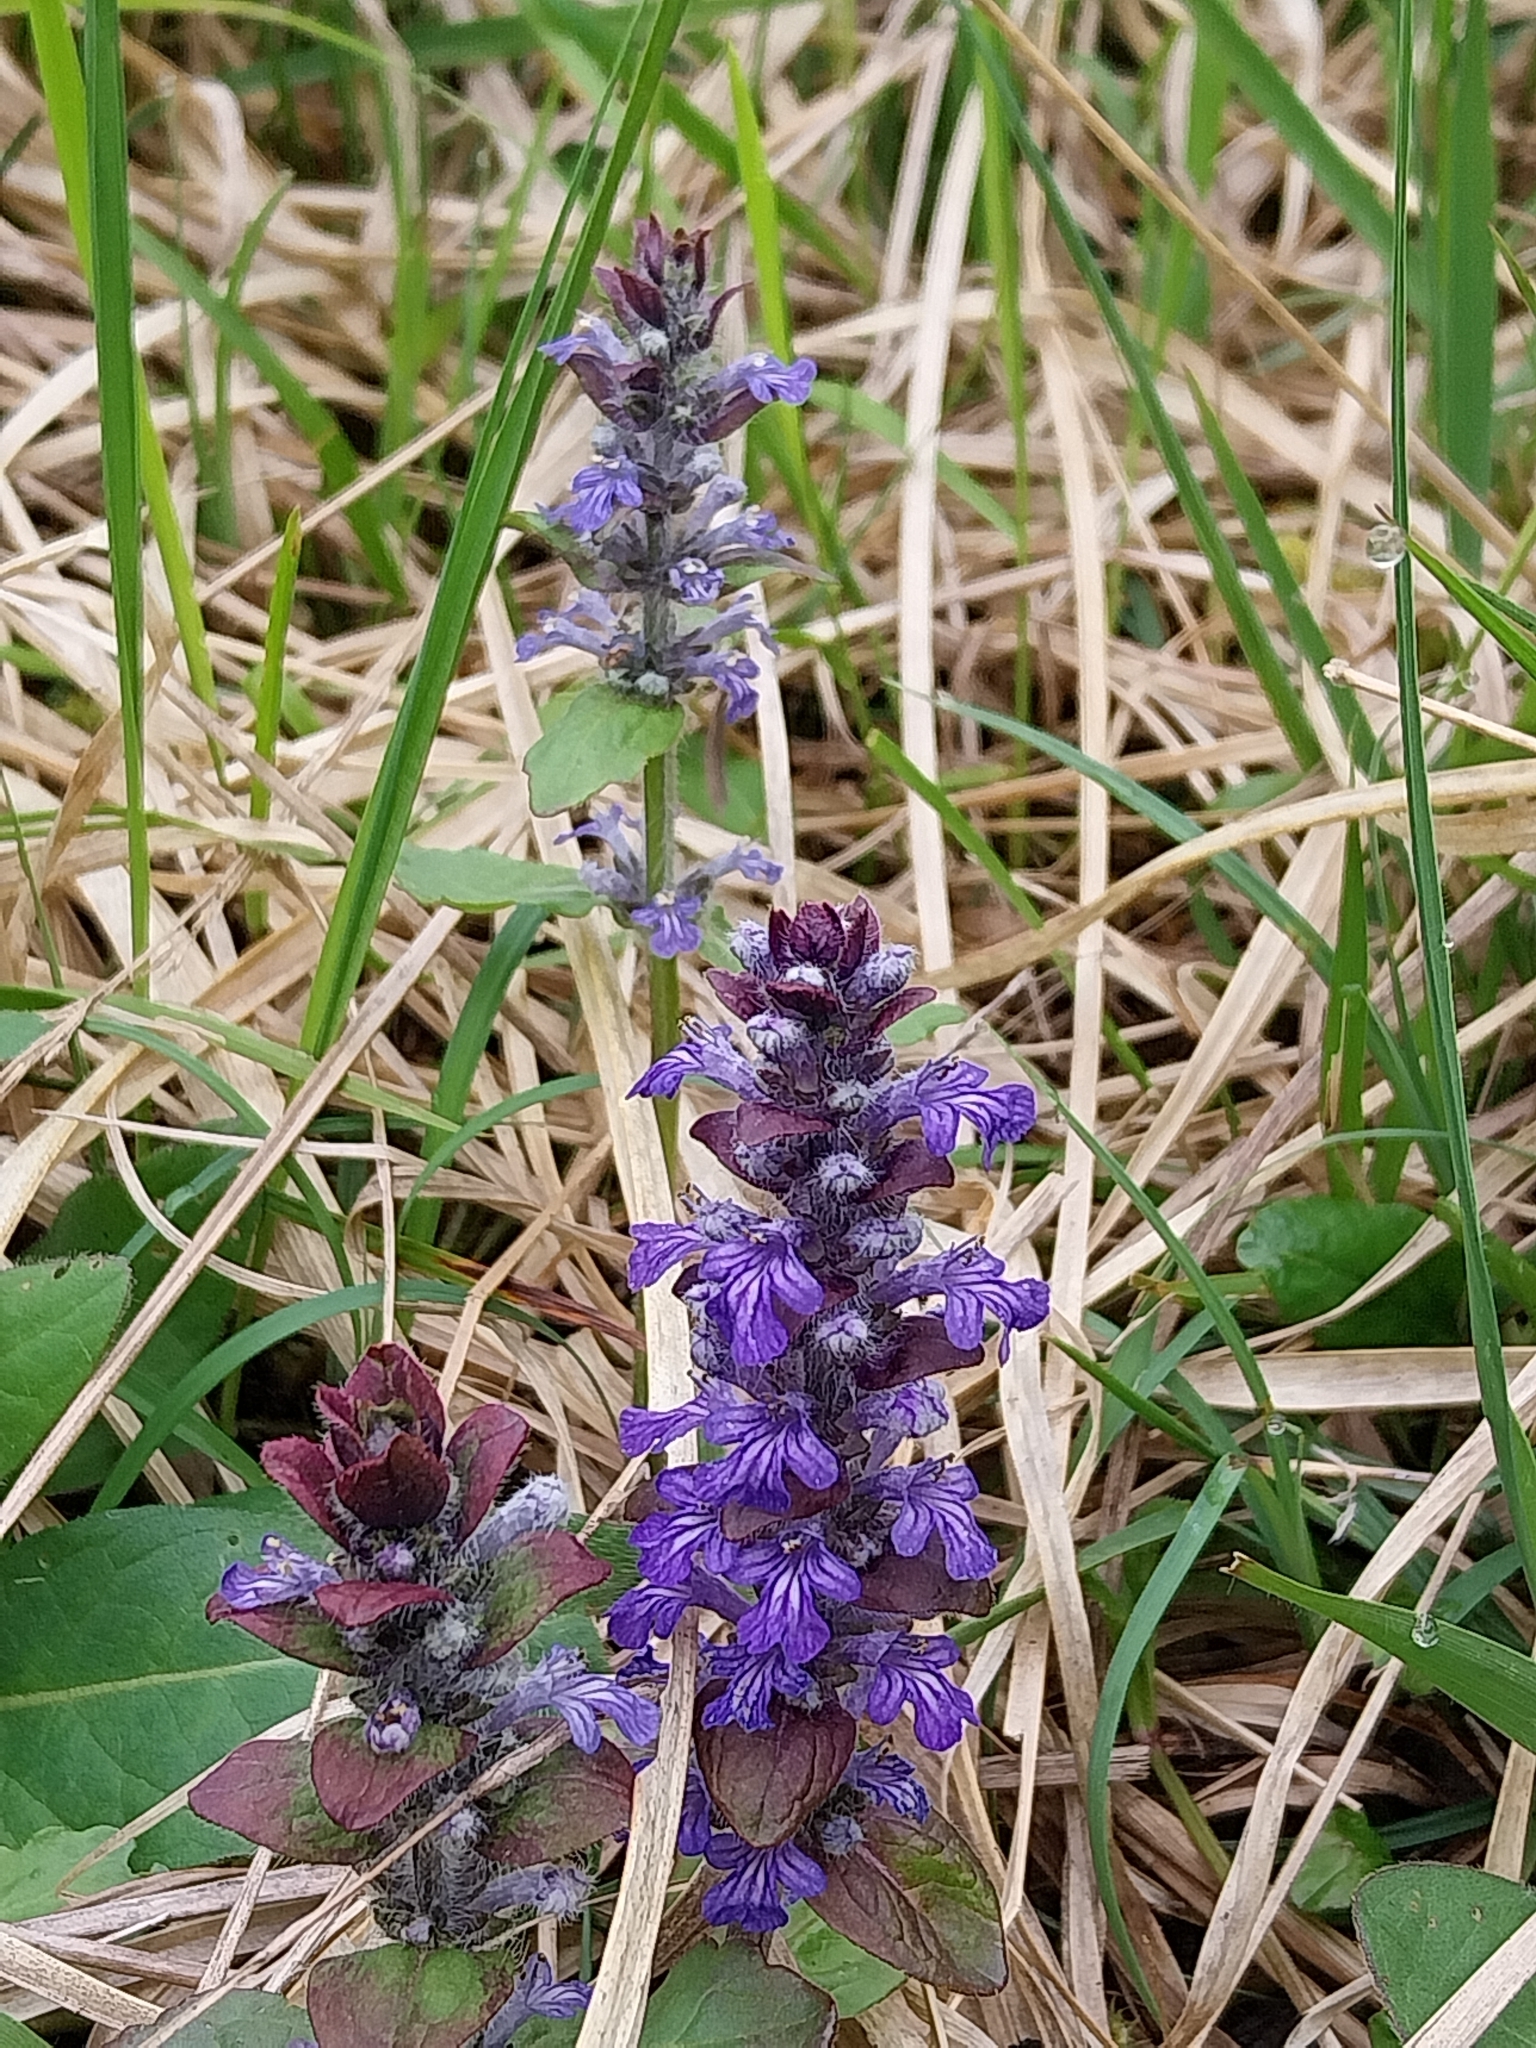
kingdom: Plantae
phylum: Tracheophyta
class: Magnoliopsida
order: Lamiales
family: Lamiaceae
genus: Ajuga
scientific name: Ajuga reptans
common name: Bugle
